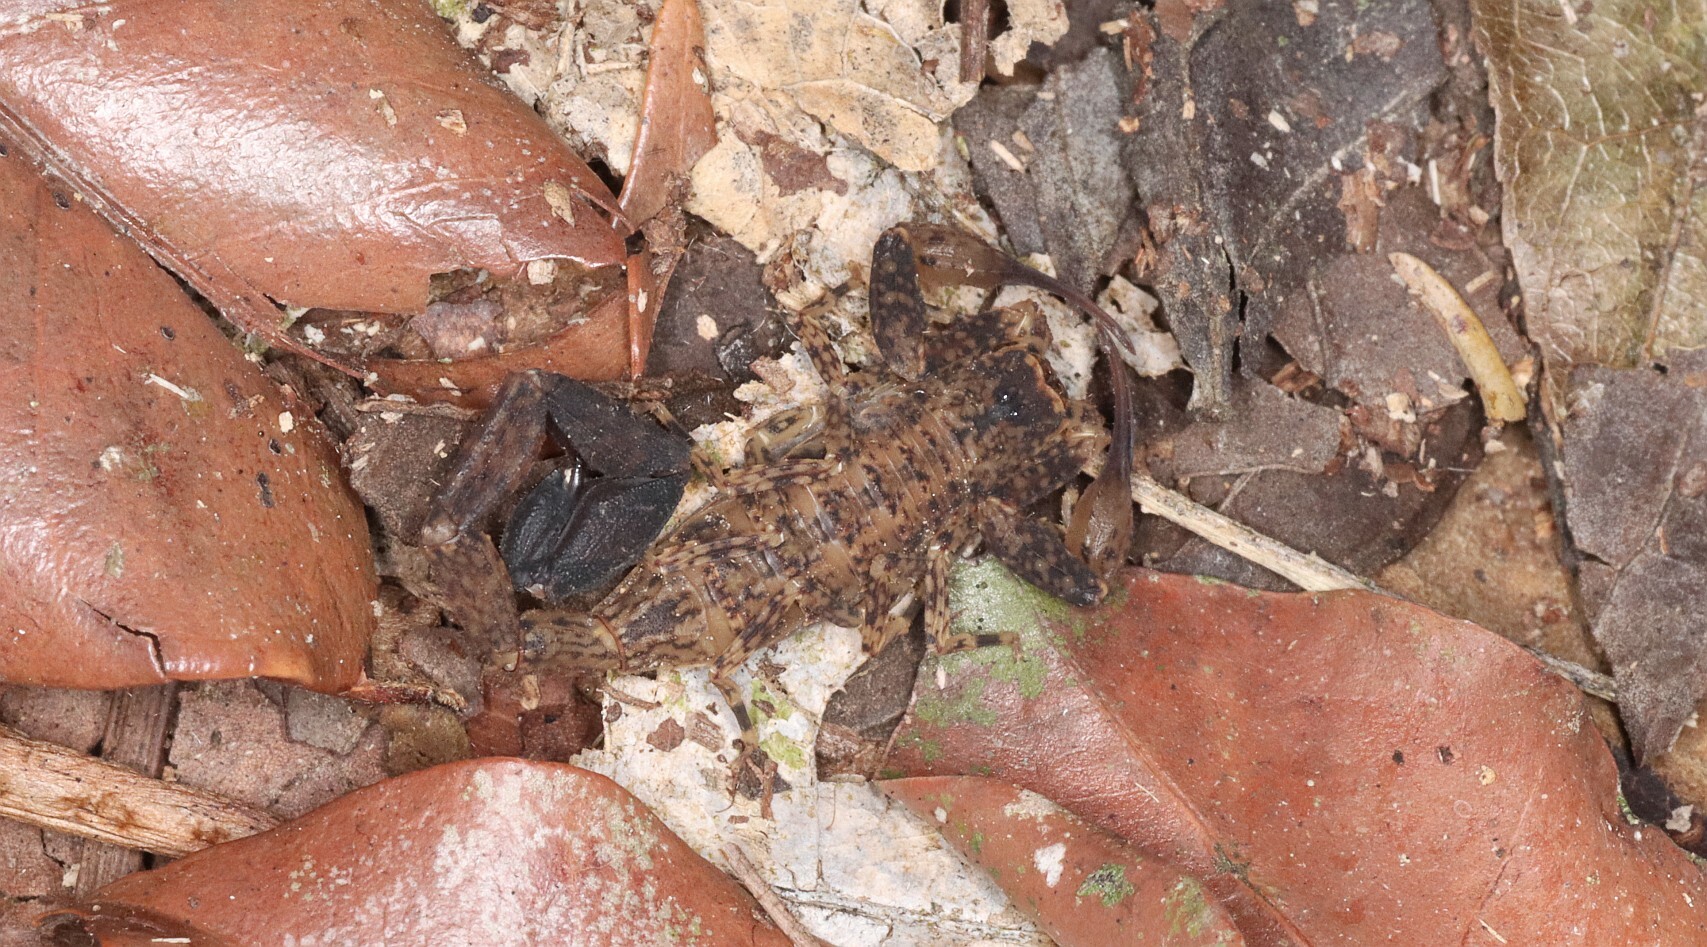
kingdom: Animalia
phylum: Arthropoda
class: Arachnida
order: Scorpiones
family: Buthidae
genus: Tityus
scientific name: Tityus wachteli
